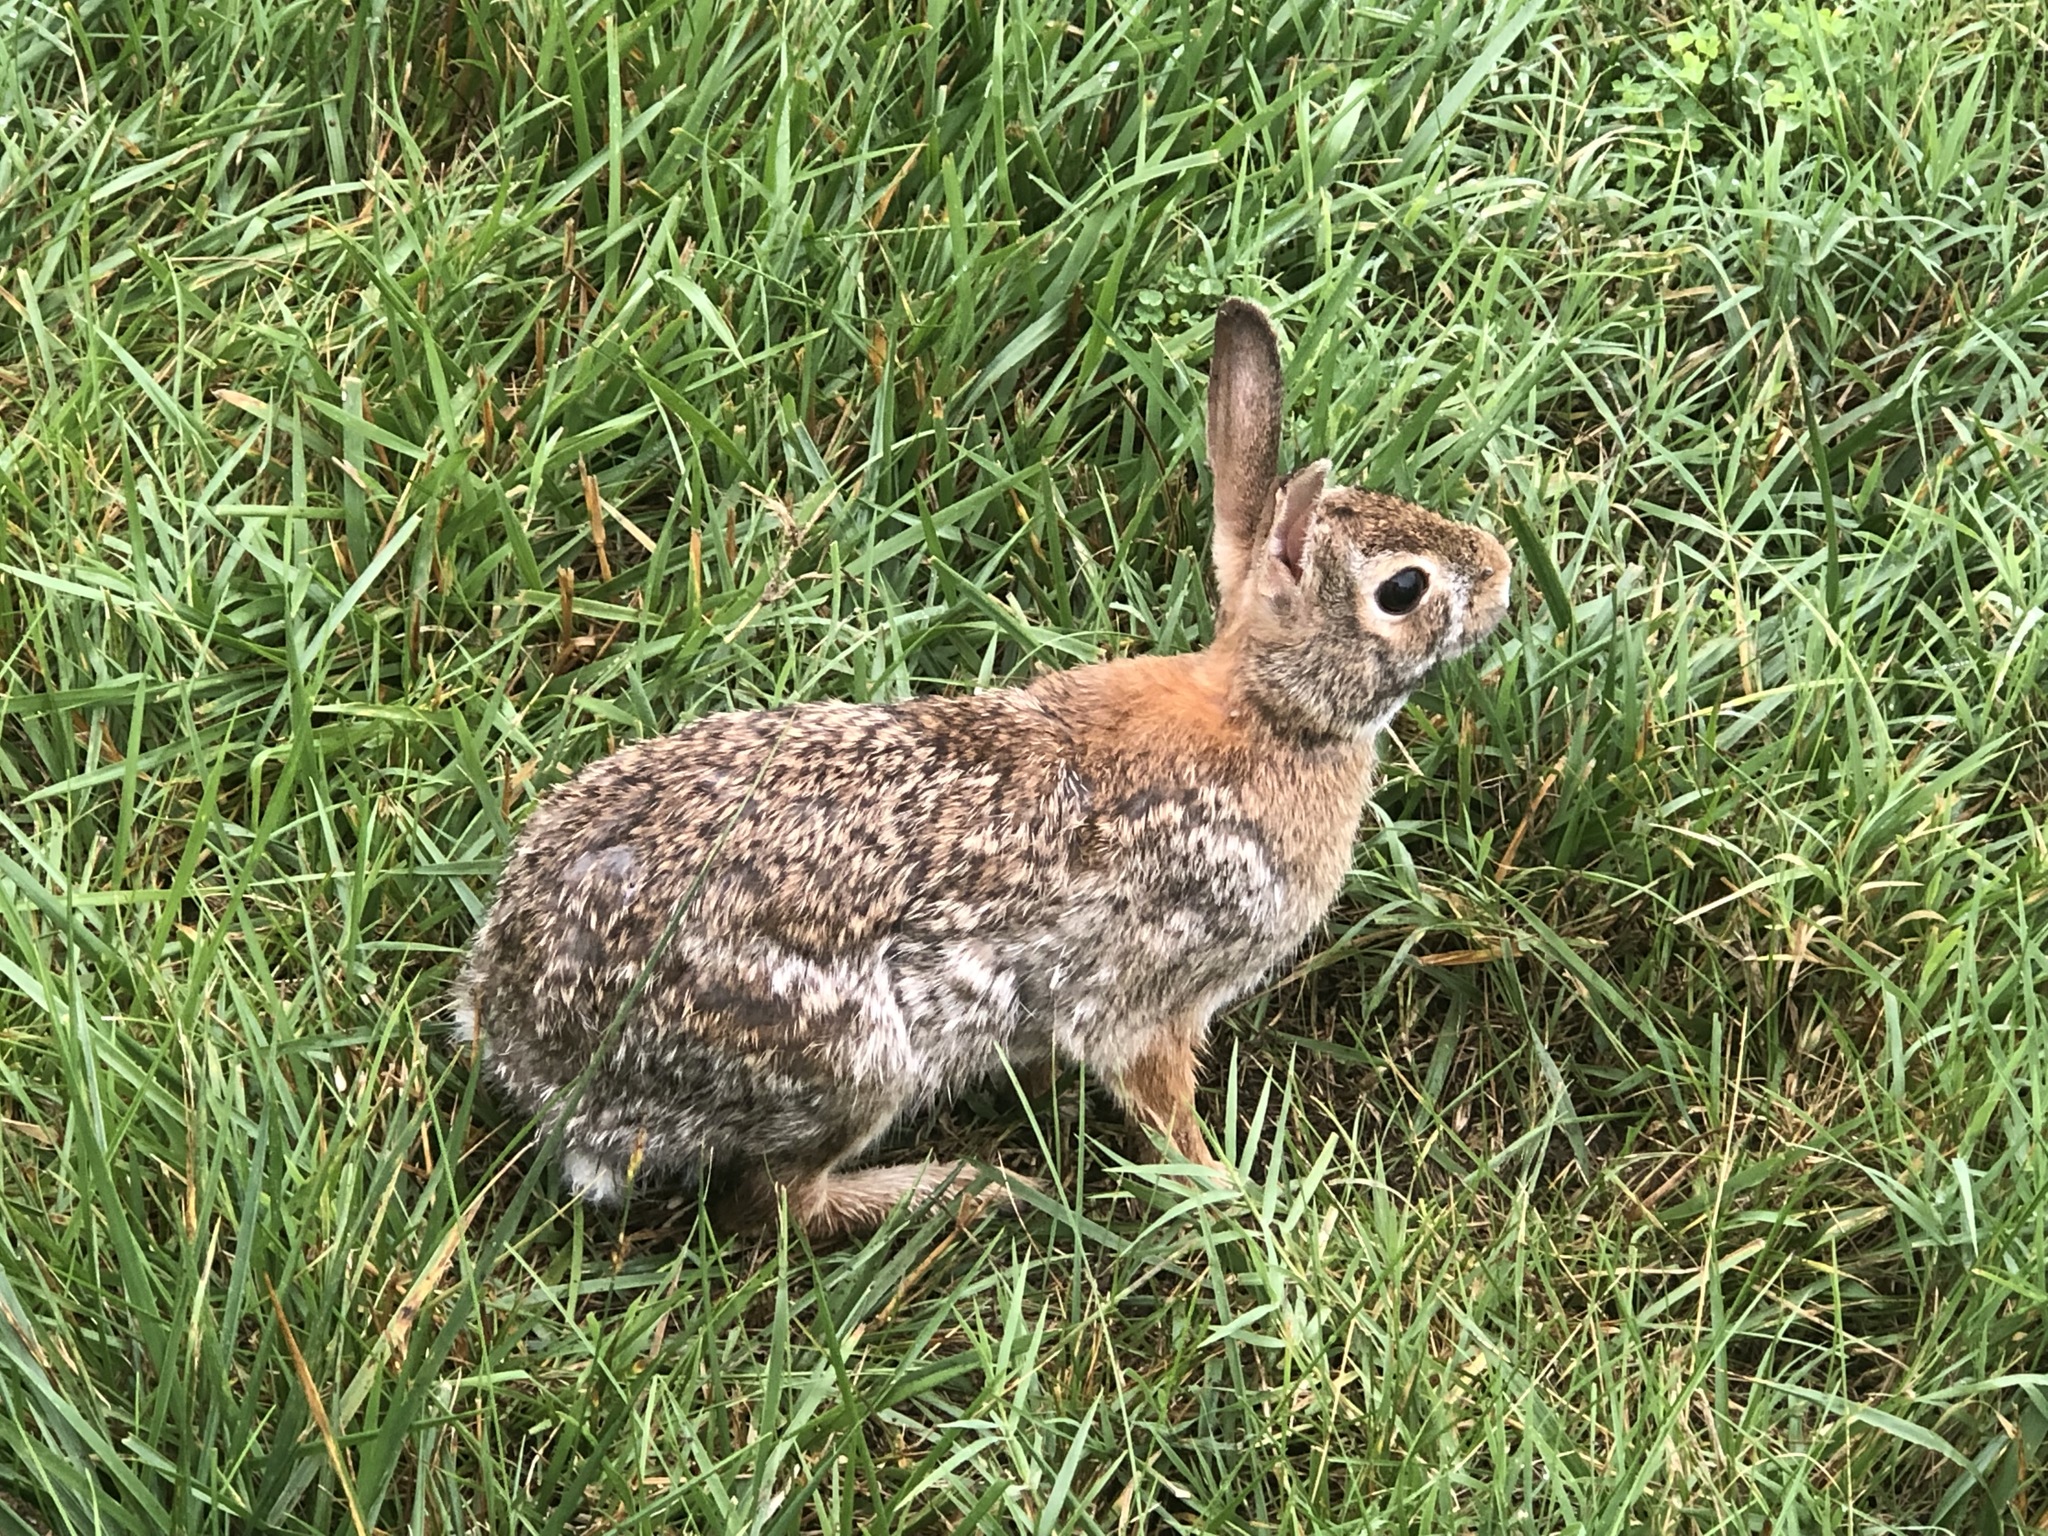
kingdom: Animalia
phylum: Chordata
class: Mammalia
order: Lagomorpha
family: Leporidae
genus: Sylvilagus
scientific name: Sylvilagus floridanus
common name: Eastern cottontail
